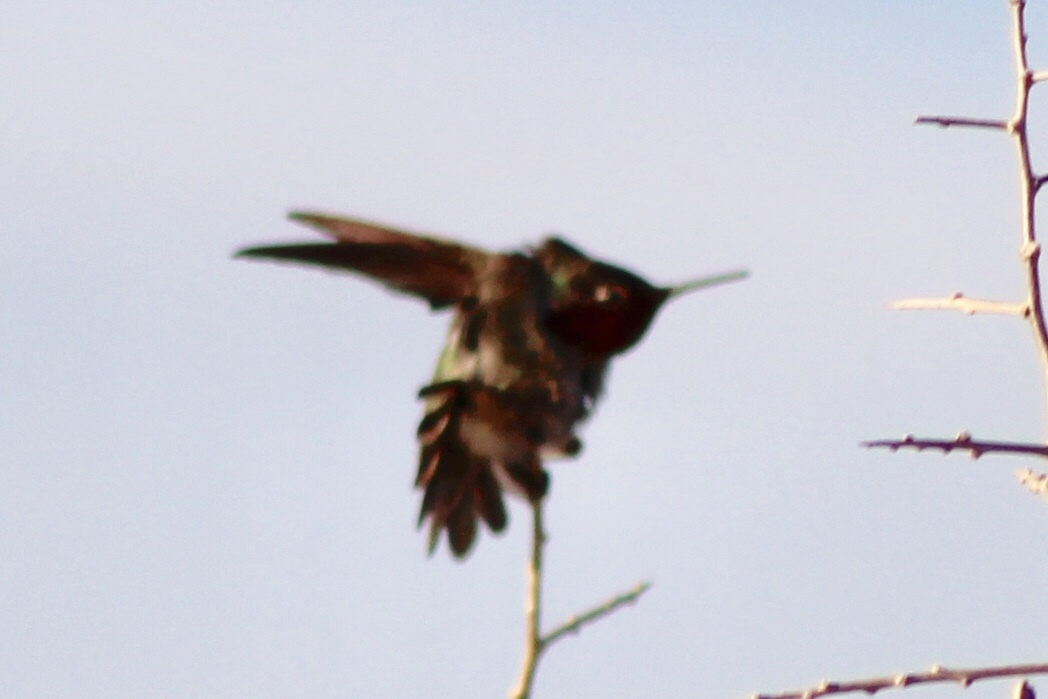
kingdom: Animalia
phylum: Chordata
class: Aves
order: Apodiformes
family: Trochilidae
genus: Calypte
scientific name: Calypte anna
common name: Anna's hummingbird
